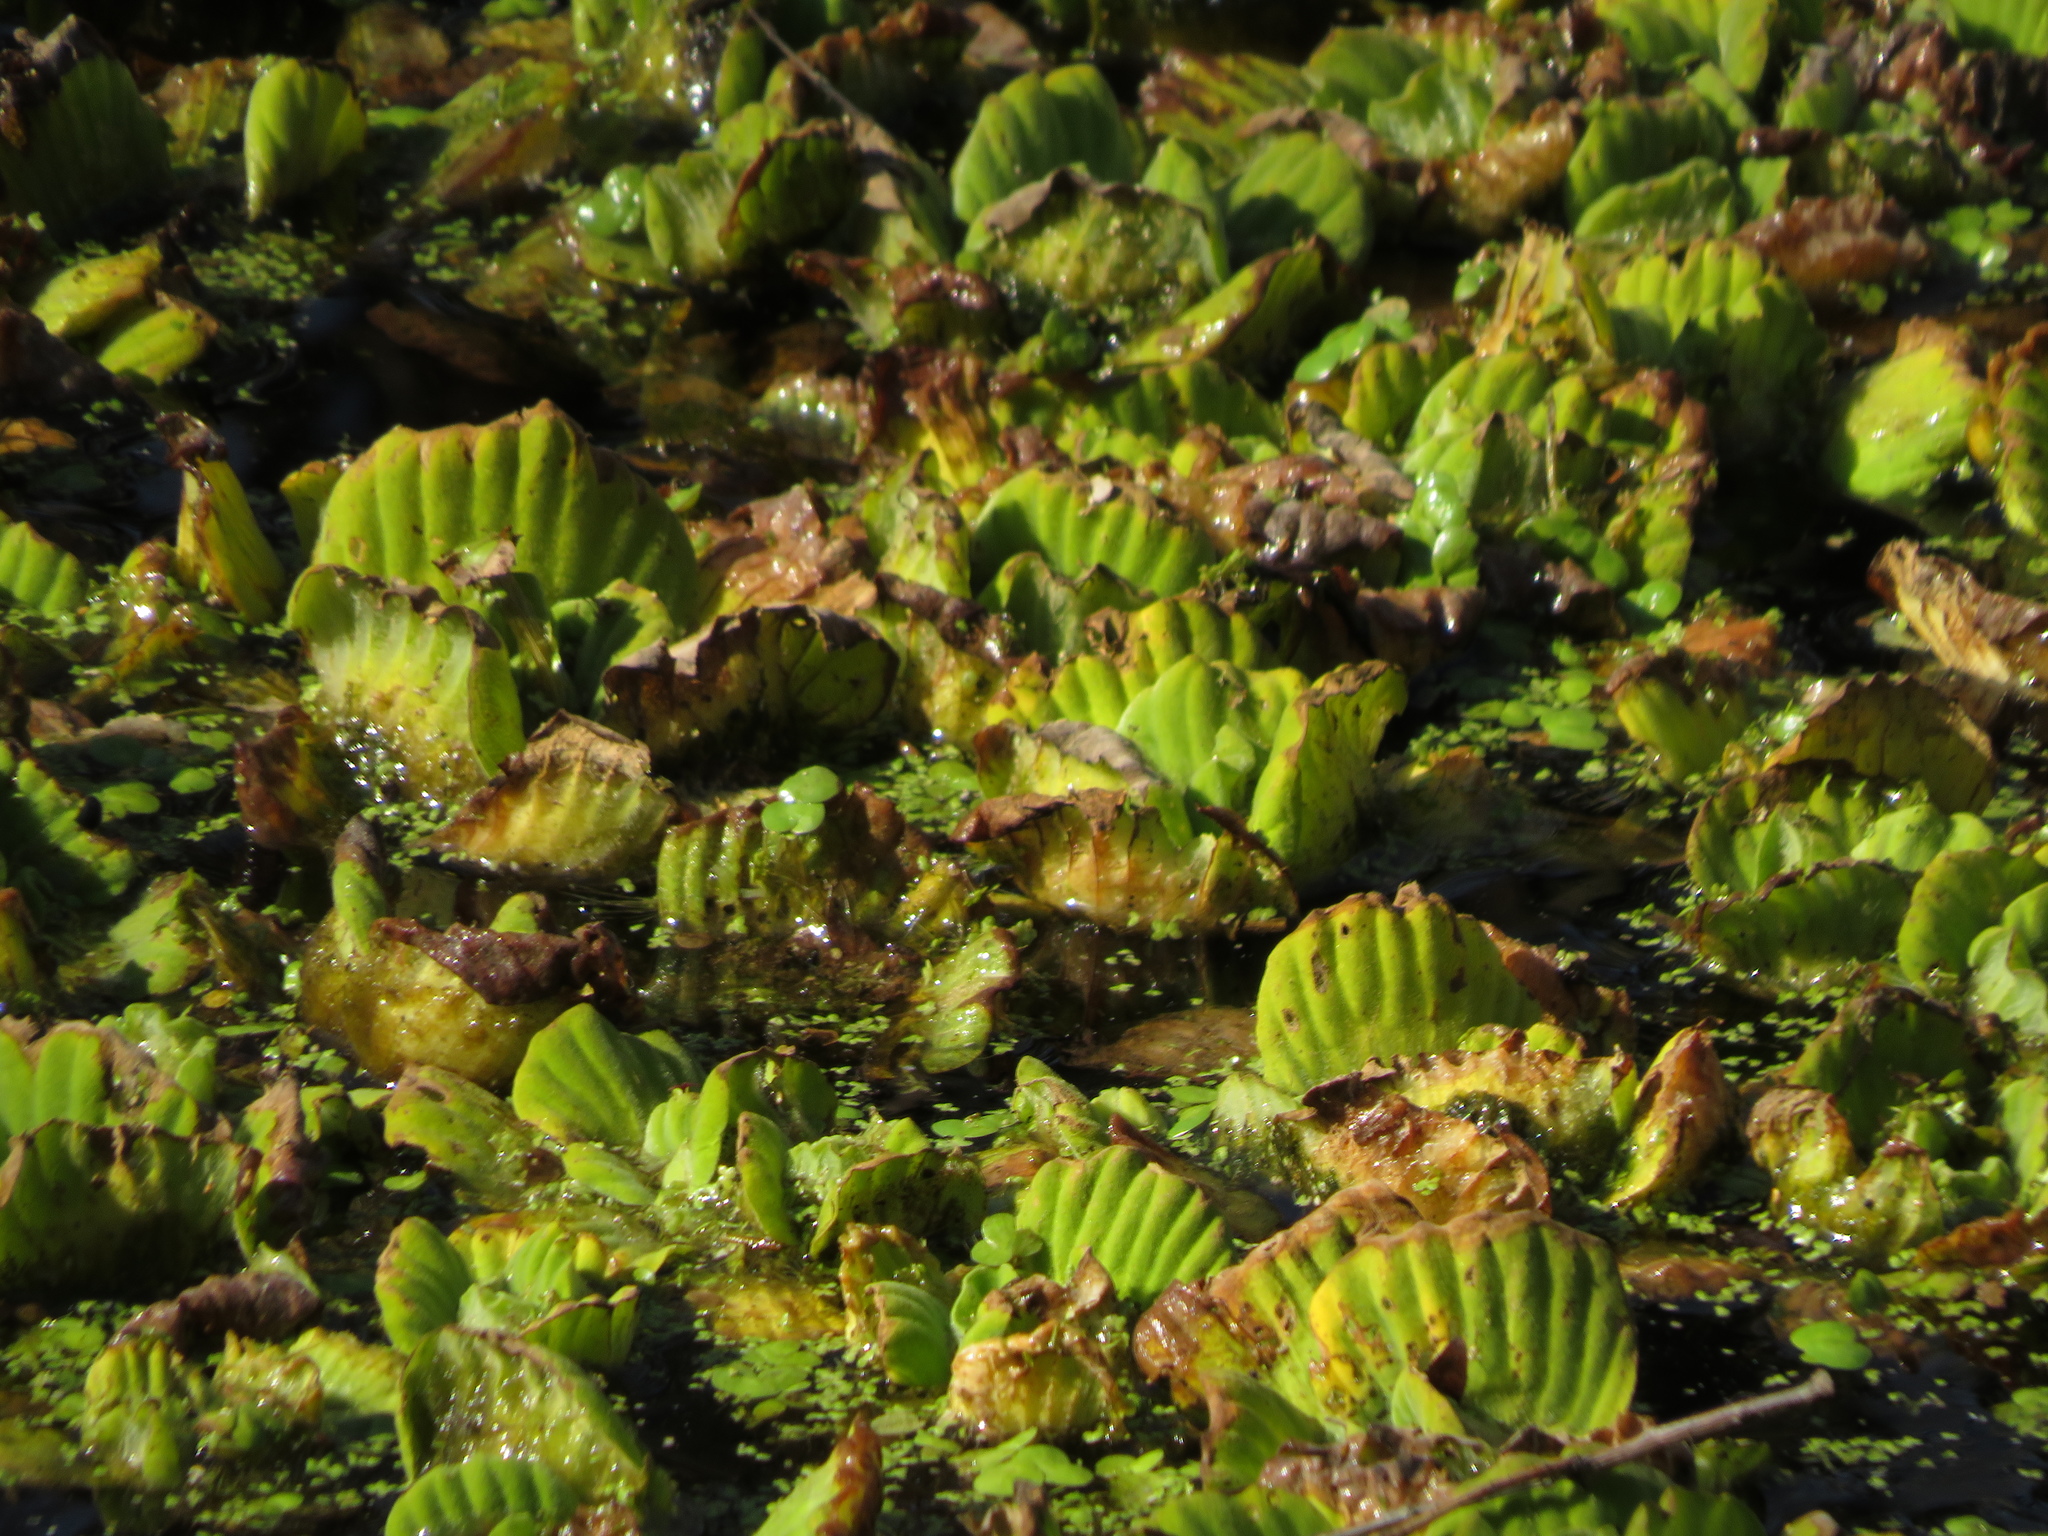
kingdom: Plantae
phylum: Tracheophyta
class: Liliopsida
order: Alismatales
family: Araceae
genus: Pistia
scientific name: Pistia stratiotes
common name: Water lettuce
